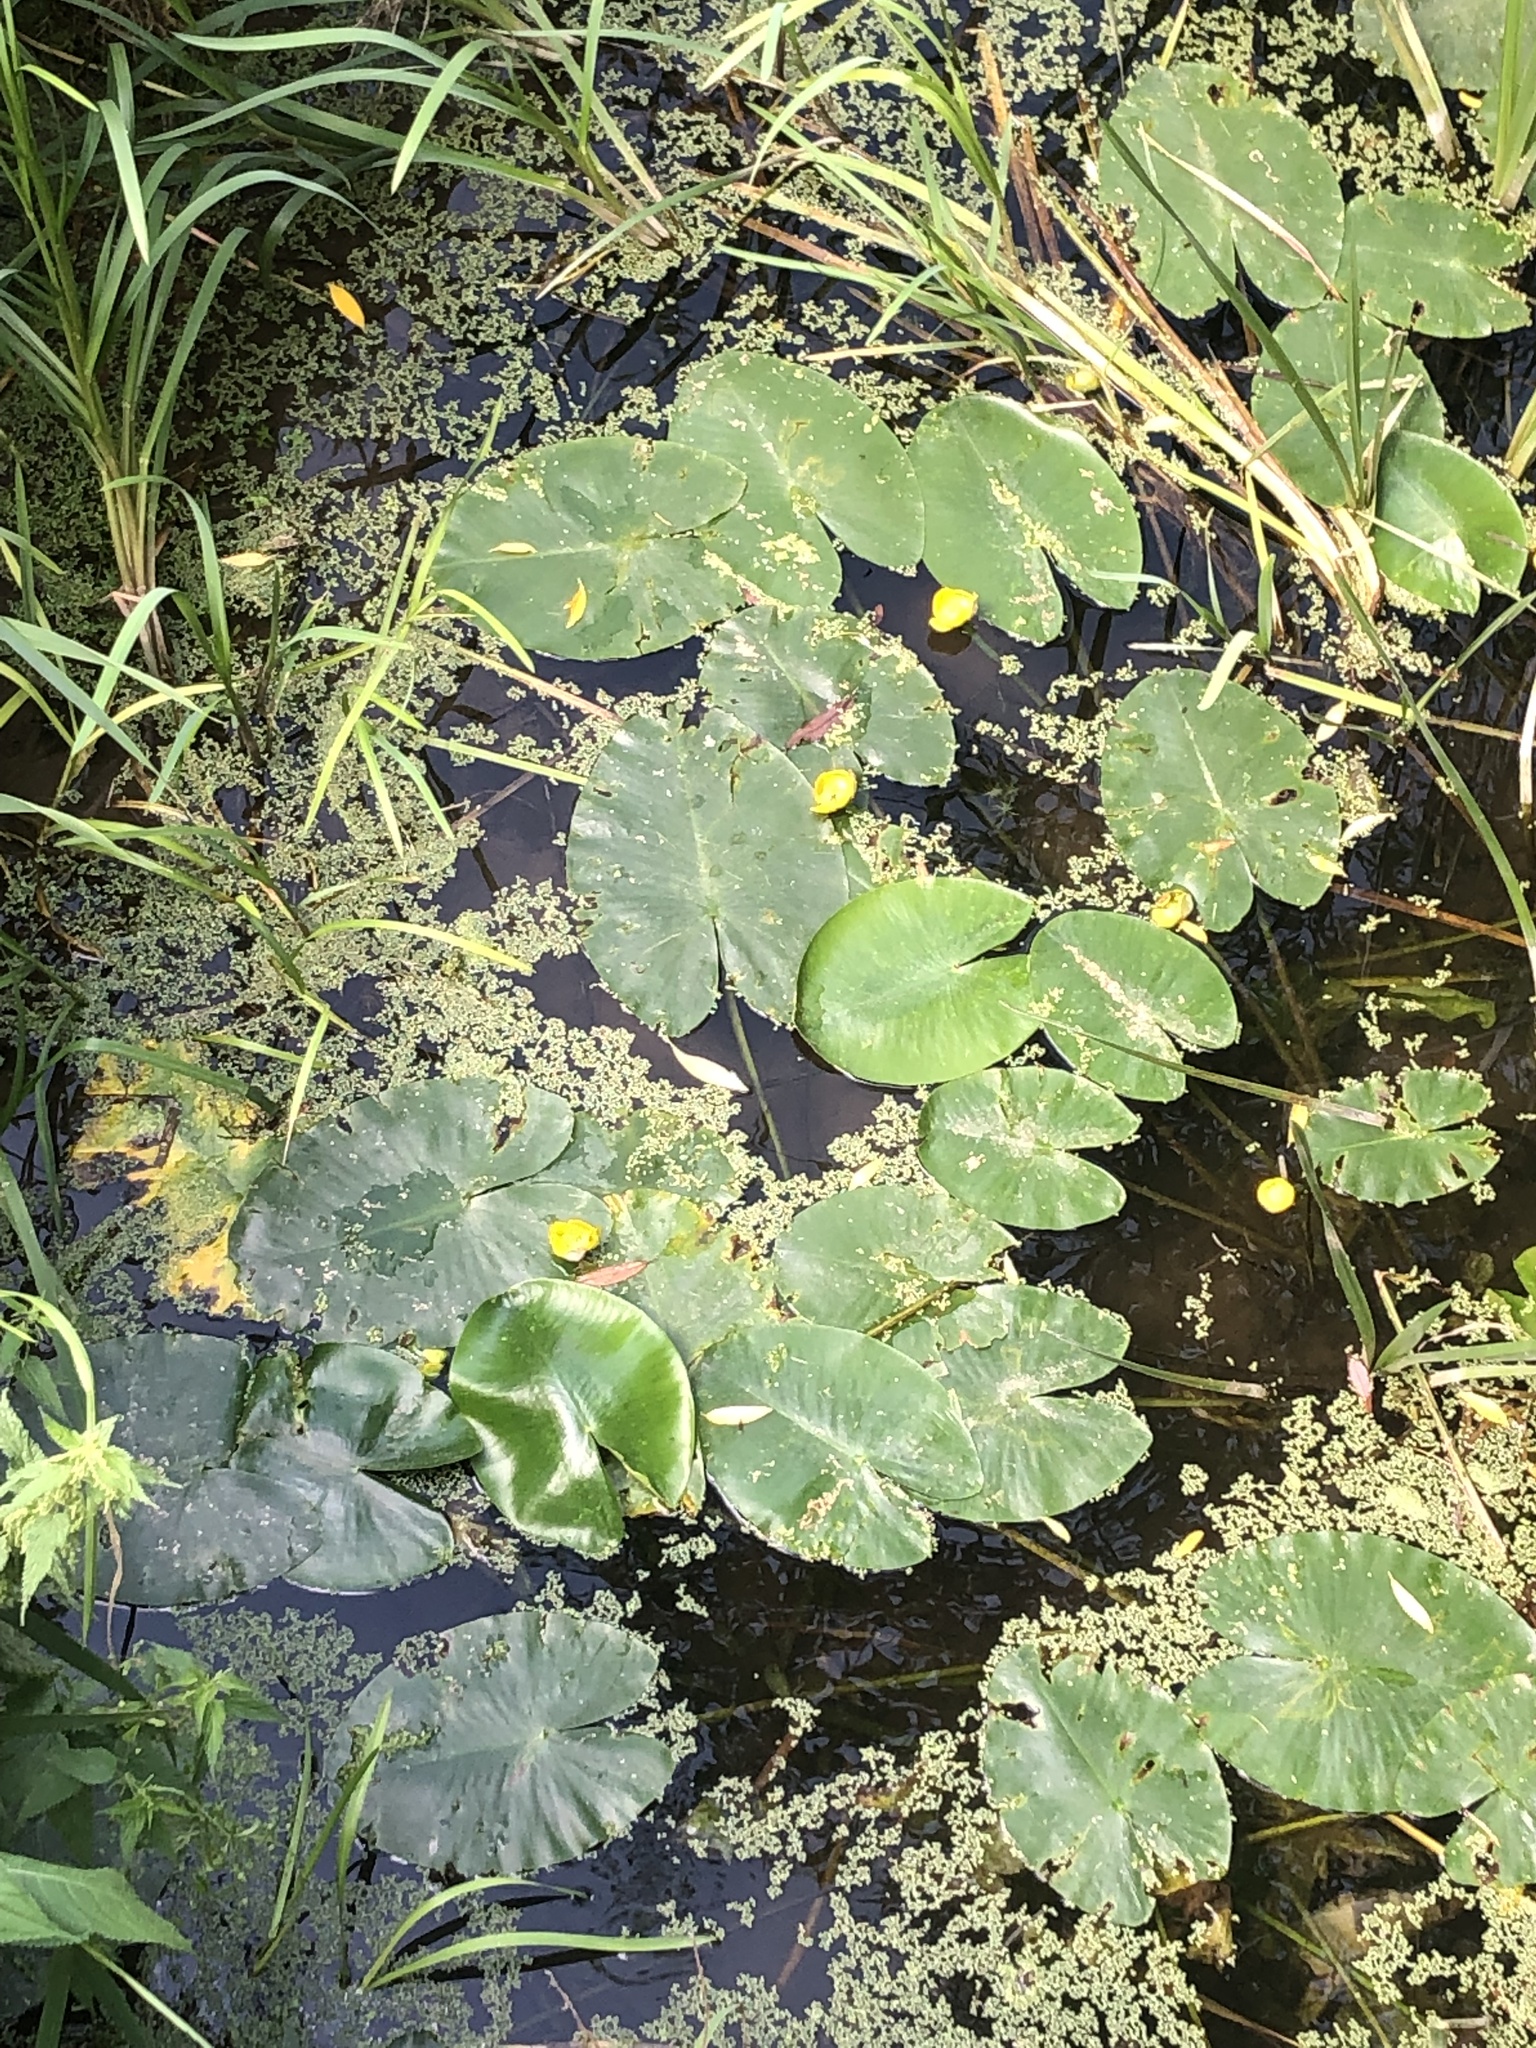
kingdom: Plantae
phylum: Tracheophyta
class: Magnoliopsida
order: Nymphaeales
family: Nymphaeaceae
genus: Nuphar
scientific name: Nuphar lutea
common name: Yellow water-lily
